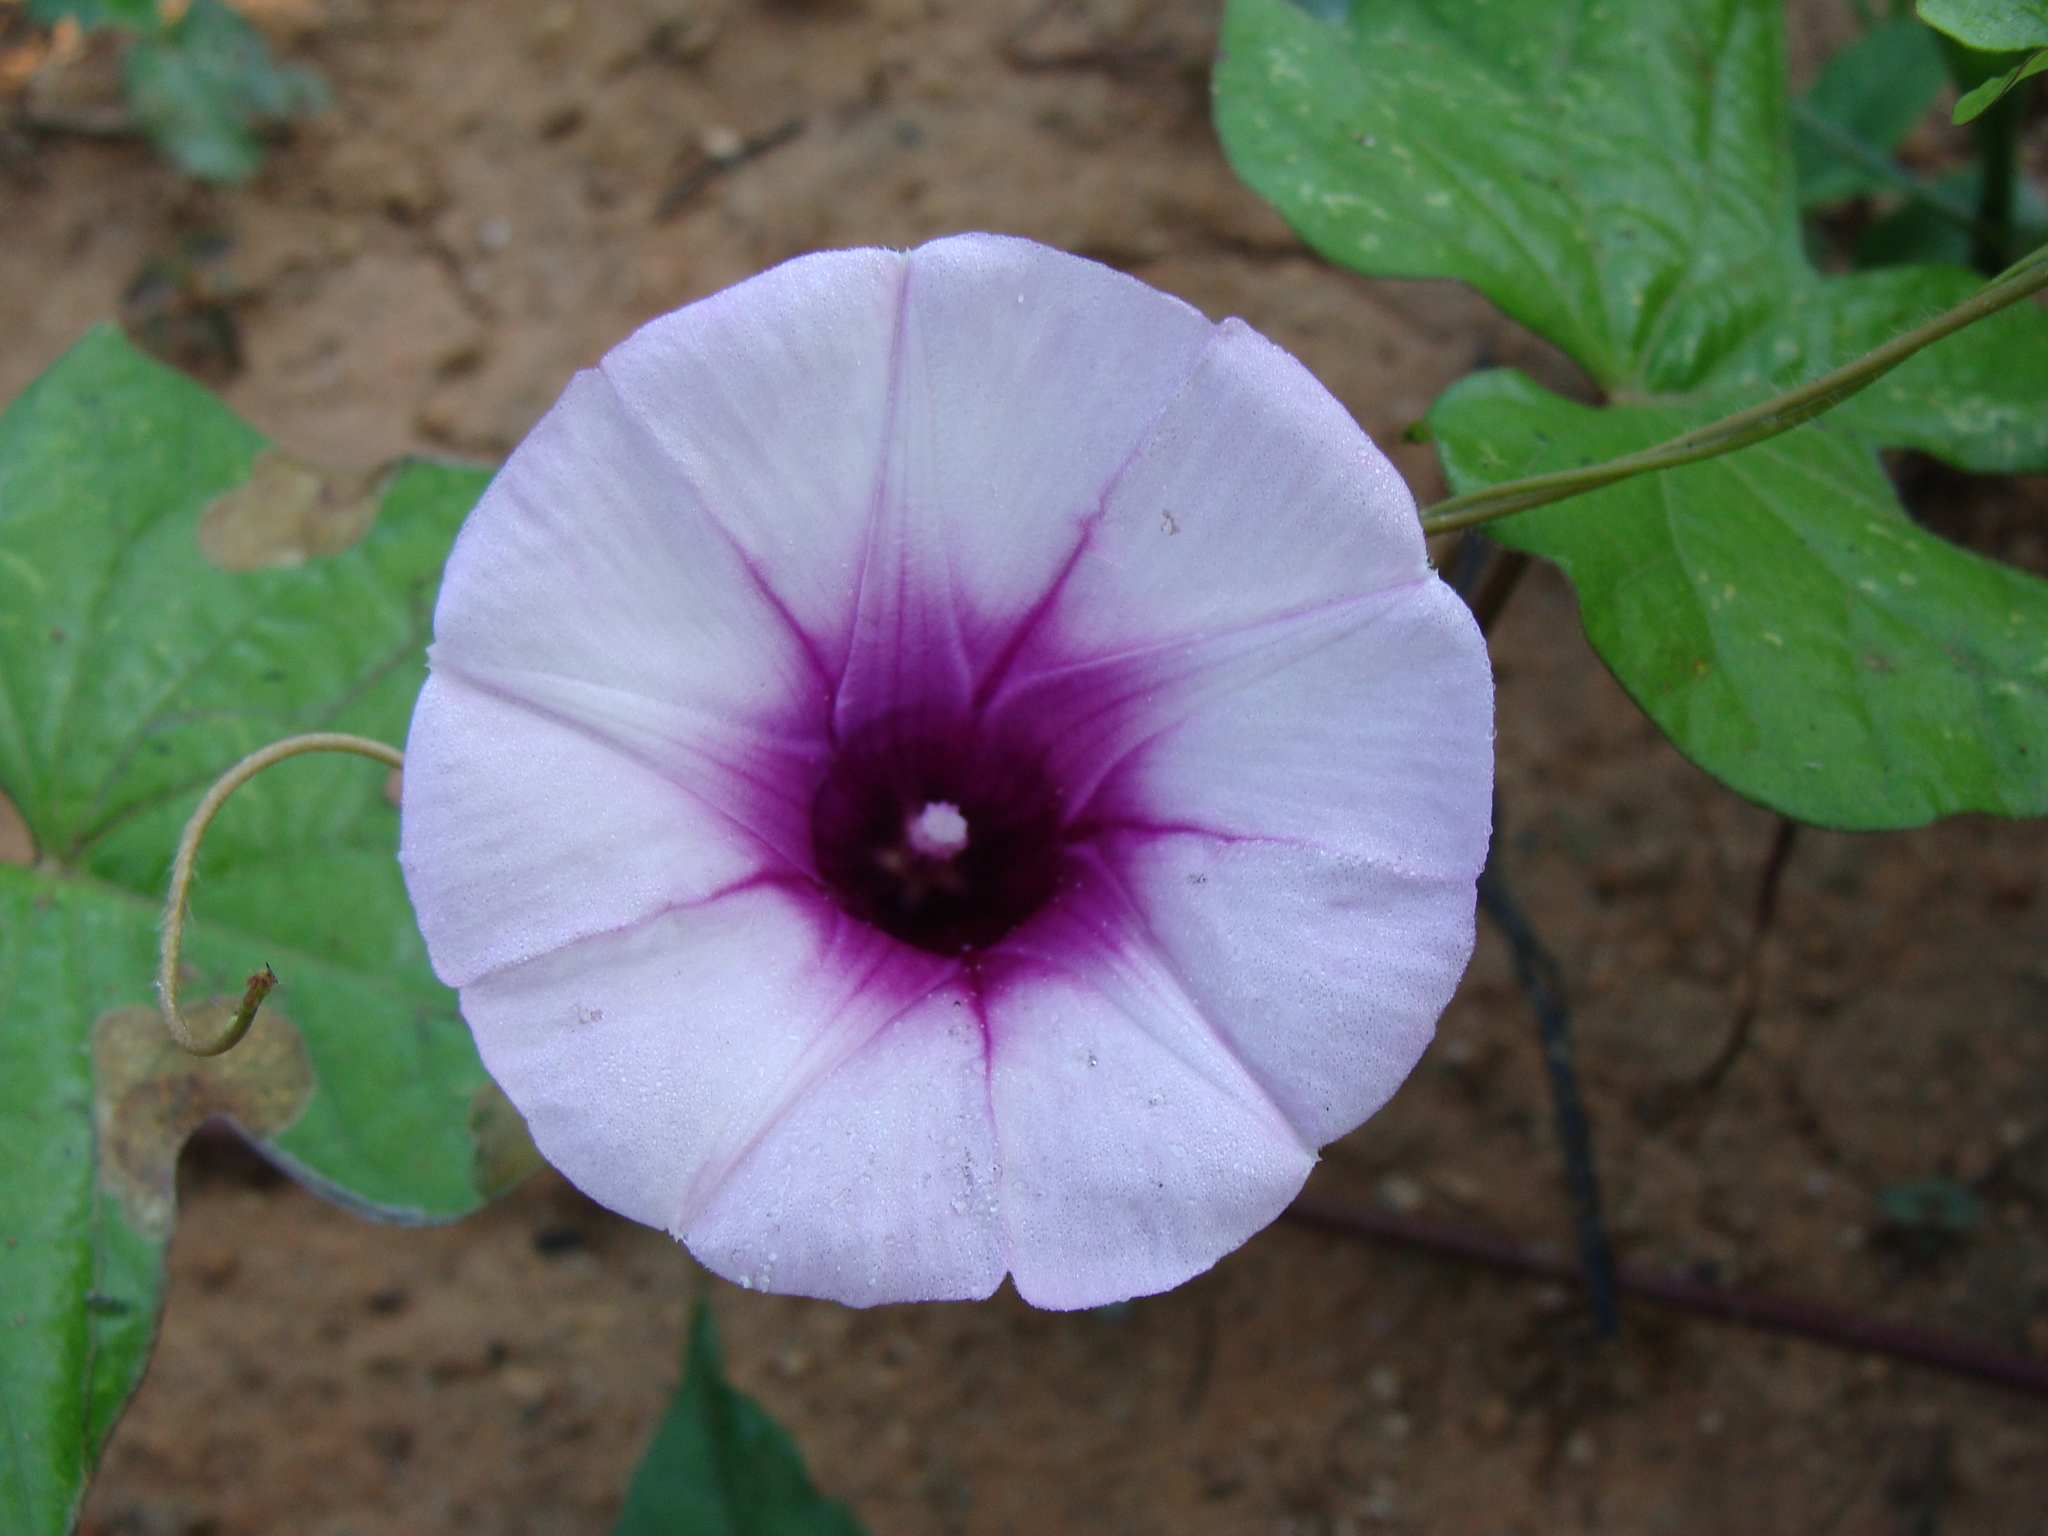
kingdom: Plantae
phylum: Tracheophyta
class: Magnoliopsida
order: Solanales
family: Convolvulaceae
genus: Ipomoea
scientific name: Ipomoea batatas
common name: Sweet-potato
